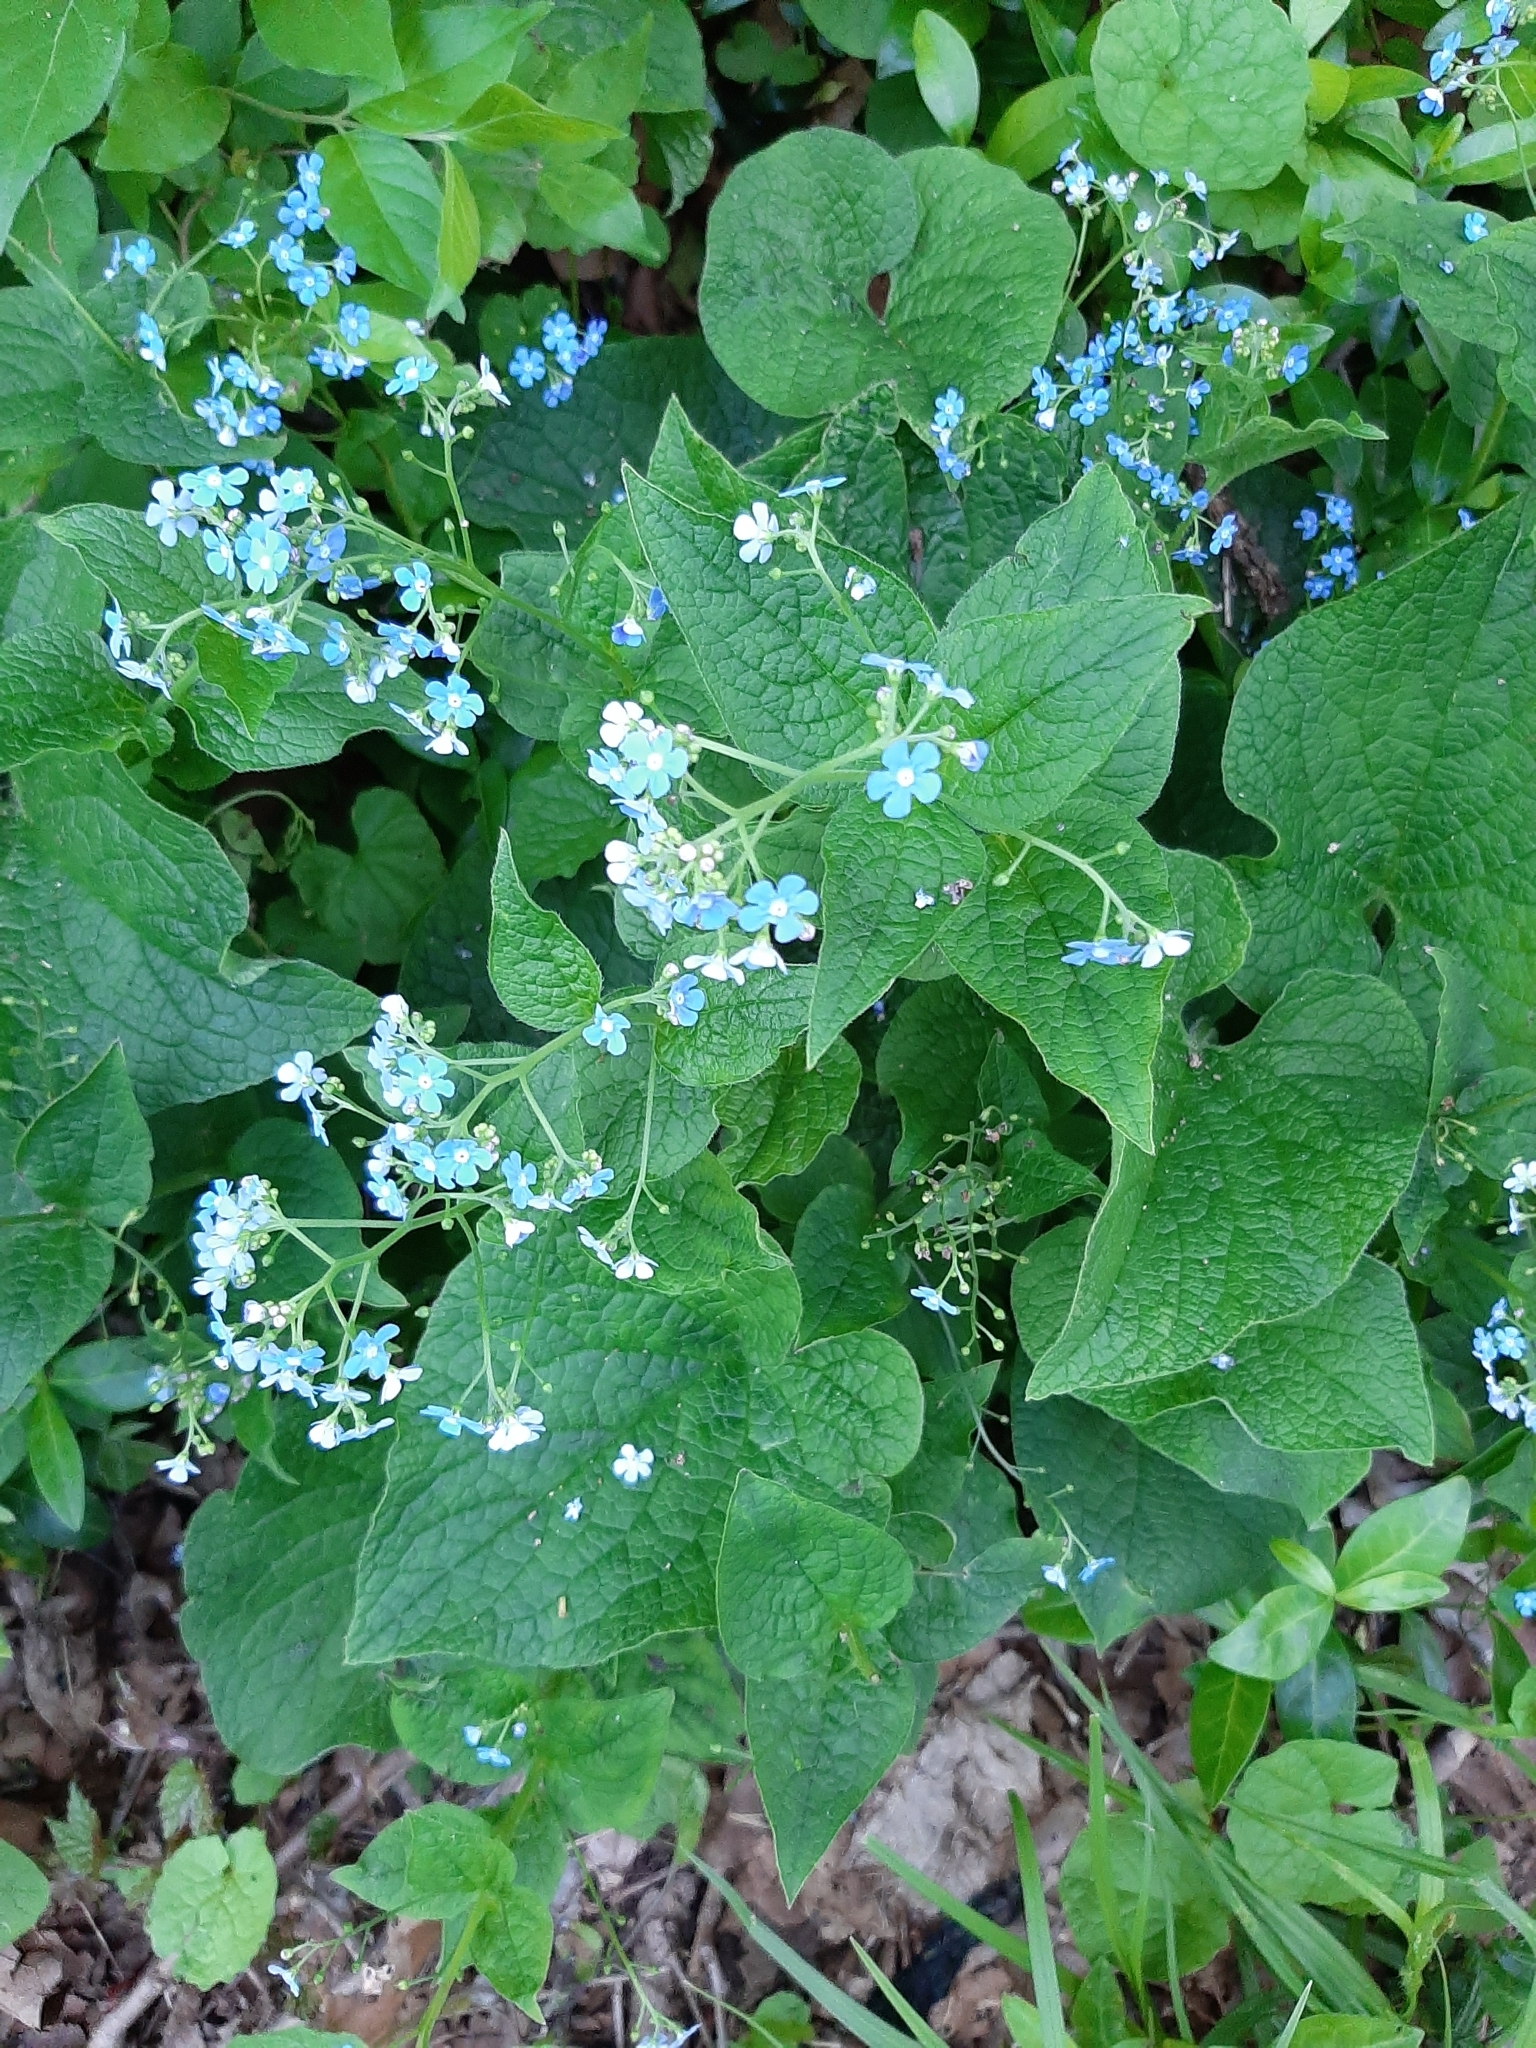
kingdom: Plantae
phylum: Tracheophyta
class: Magnoliopsida
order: Boraginales
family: Boraginaceae
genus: Brunnera
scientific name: Brunnera macrophylla
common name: Great forget-me-not
